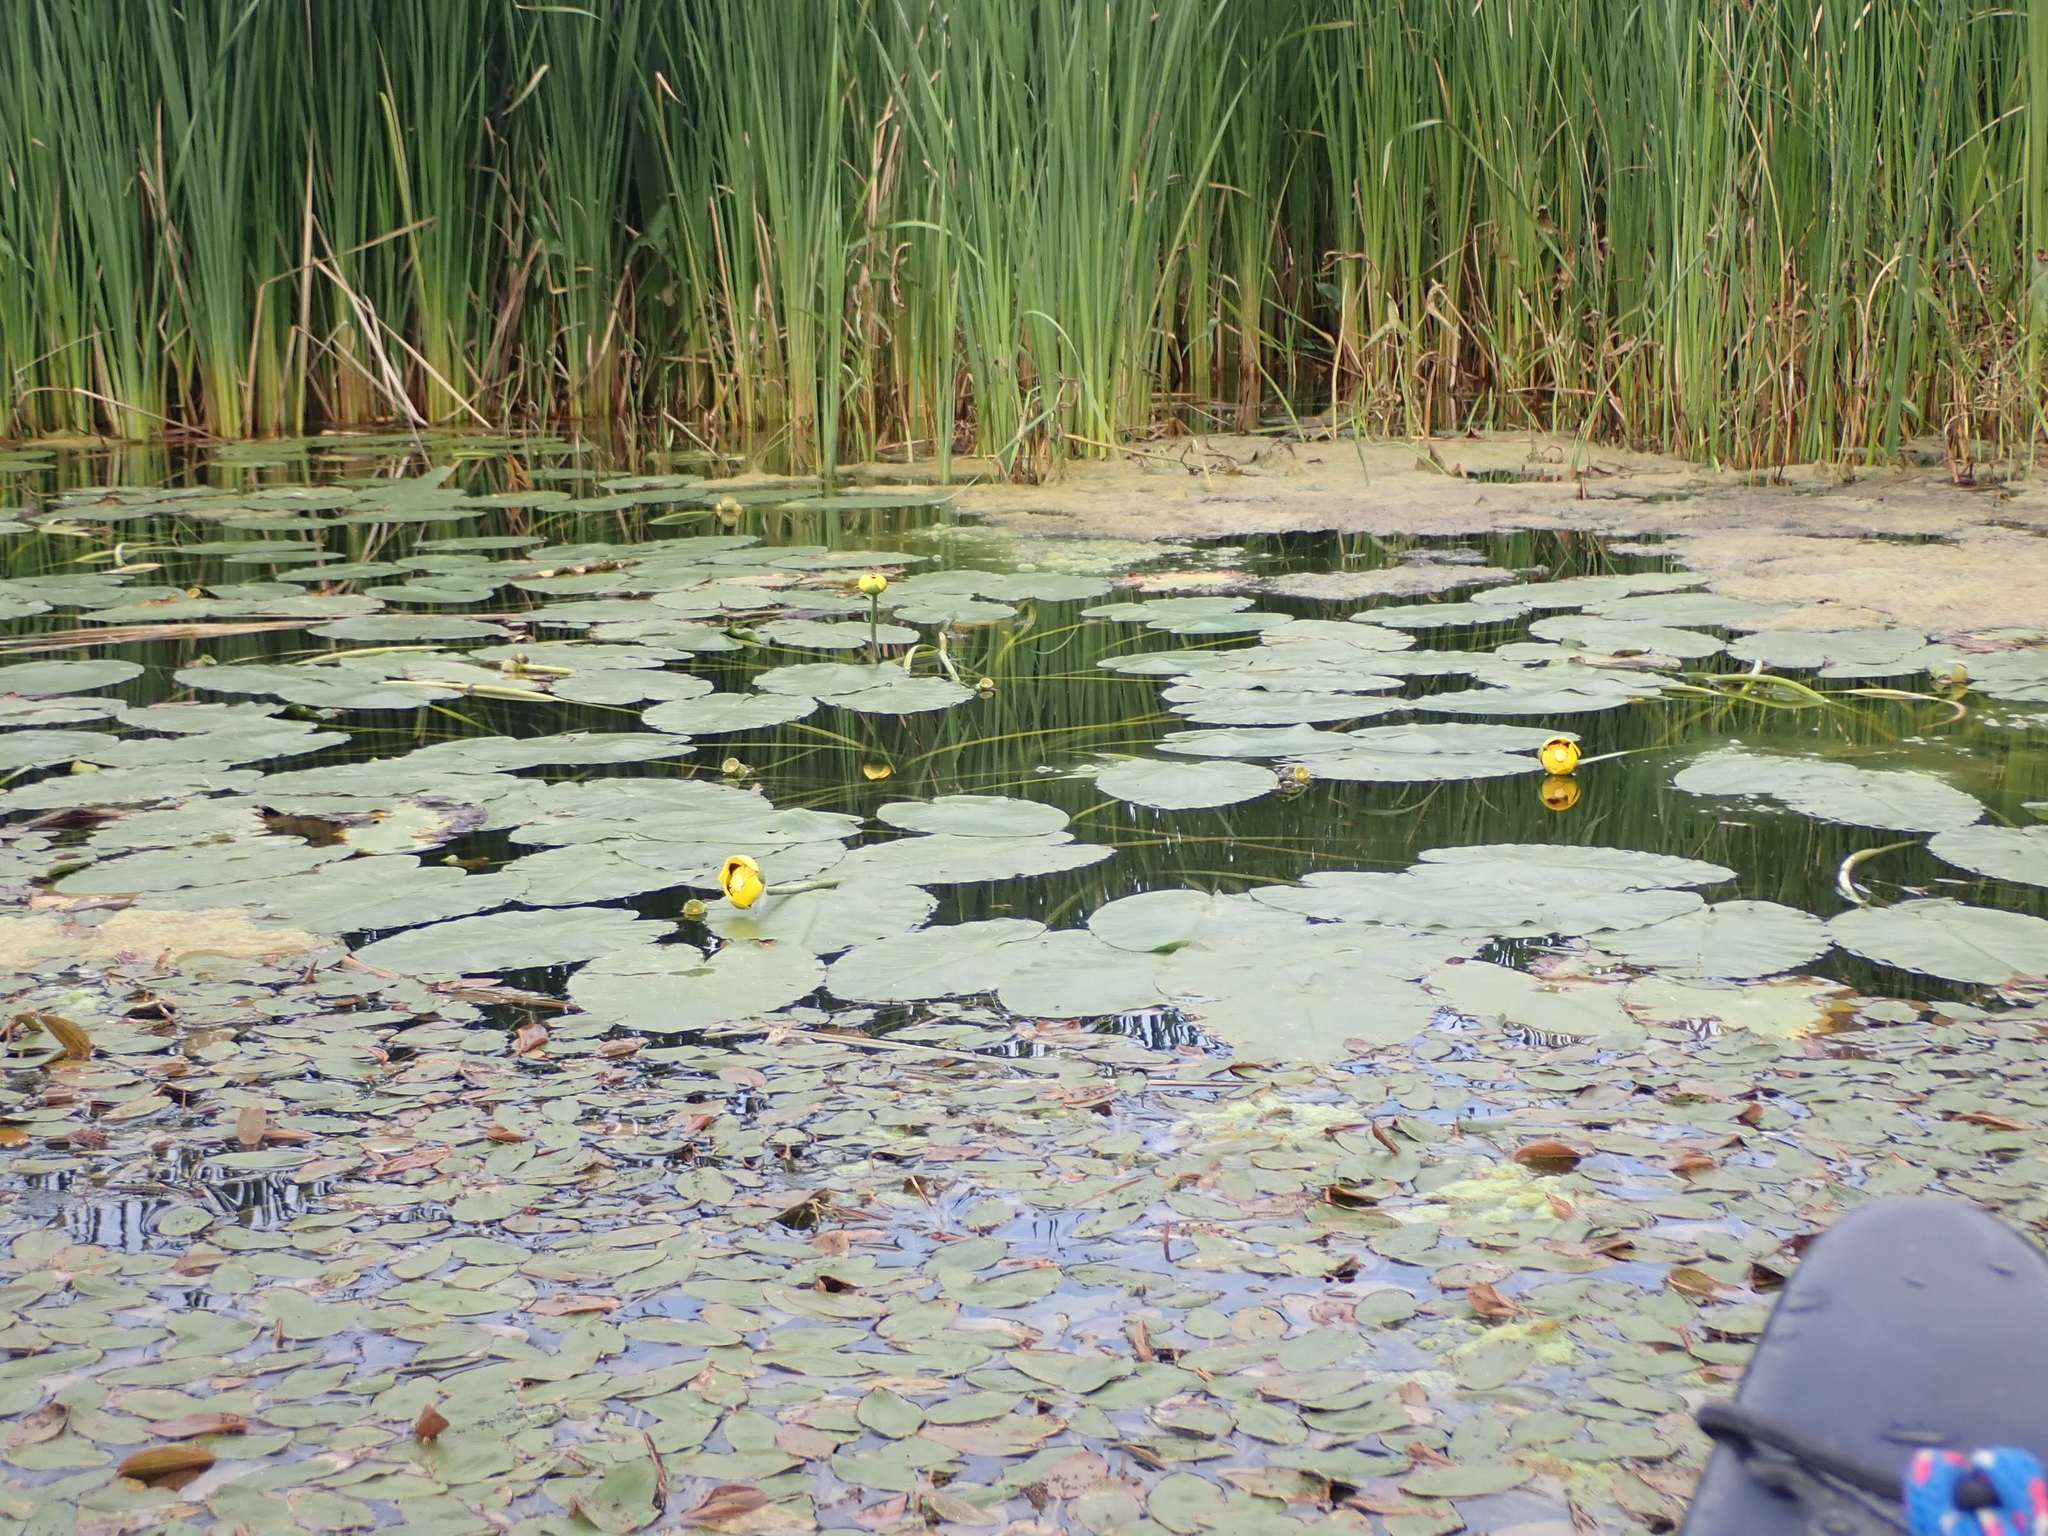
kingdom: Plantae
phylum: Tracheophyta
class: Magnoliopsida
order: Nymphaeales
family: Nymphaeaceae
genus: Nuphar
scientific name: Nuphar variegata
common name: Beaver-root
